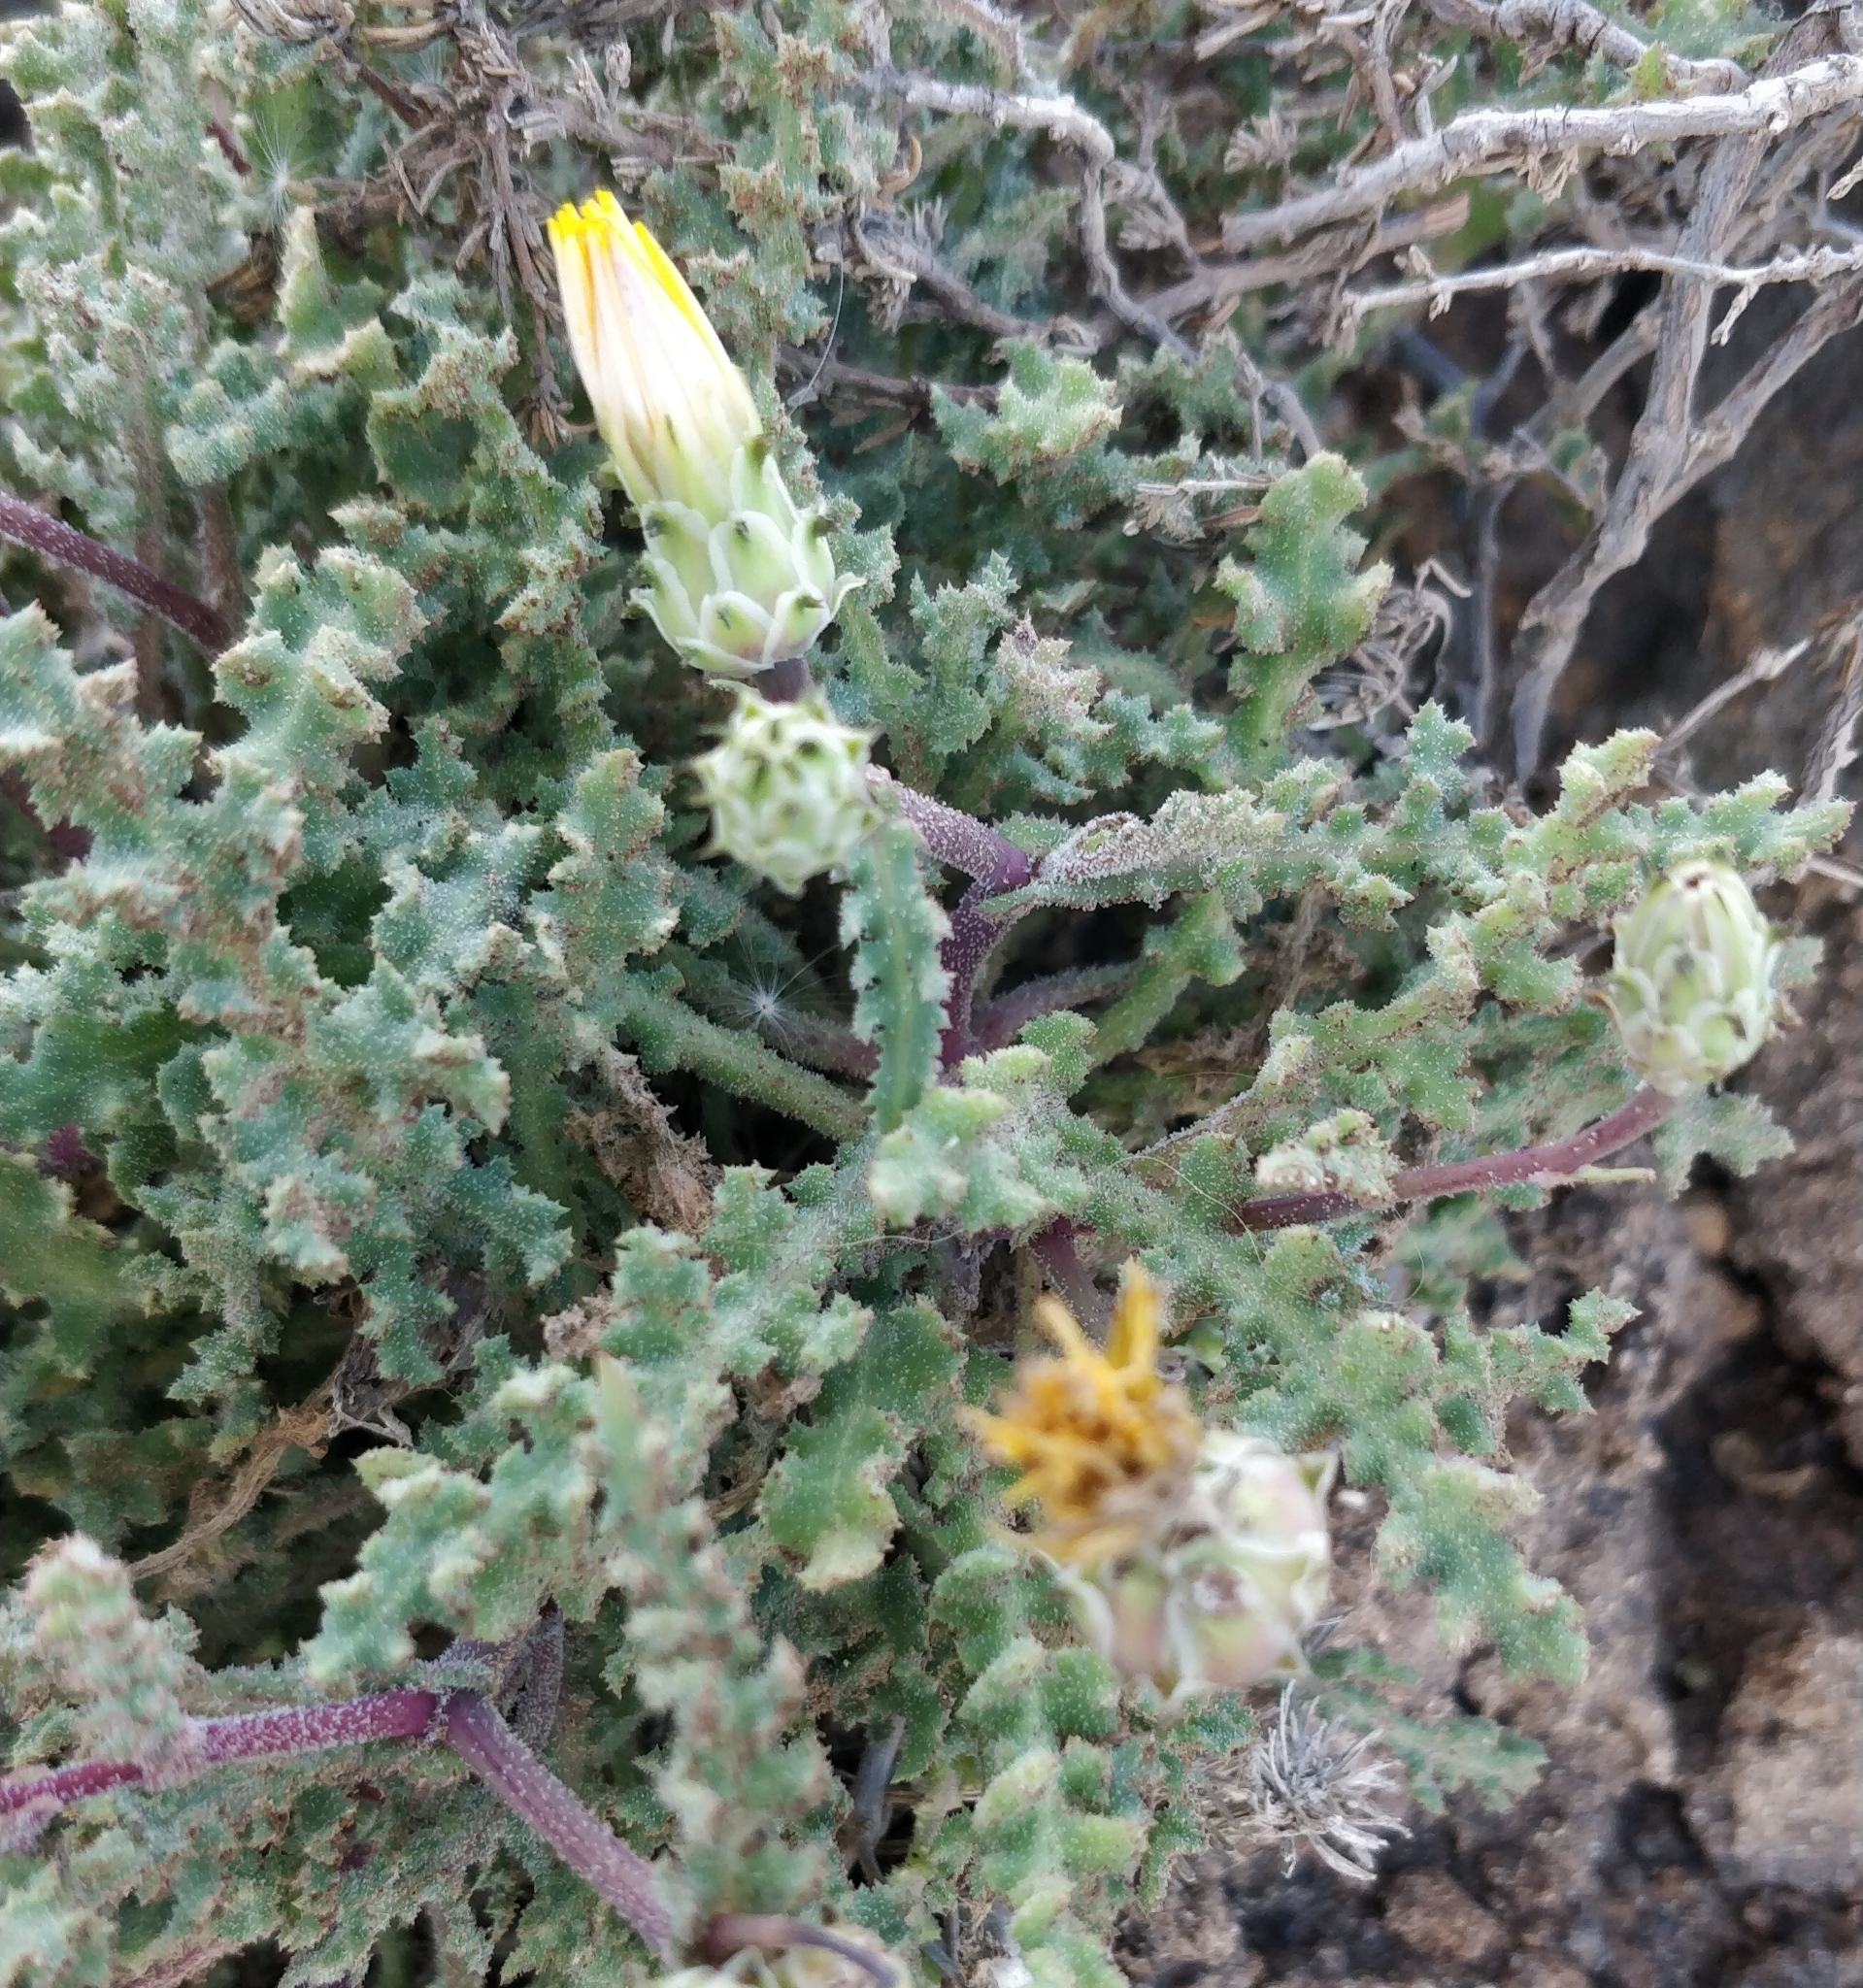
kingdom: Plantae
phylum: Tracheophyta
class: Magnoliopsida
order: Asterales
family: Asteraceae
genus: Reichardia
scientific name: Reichardia crystallina
